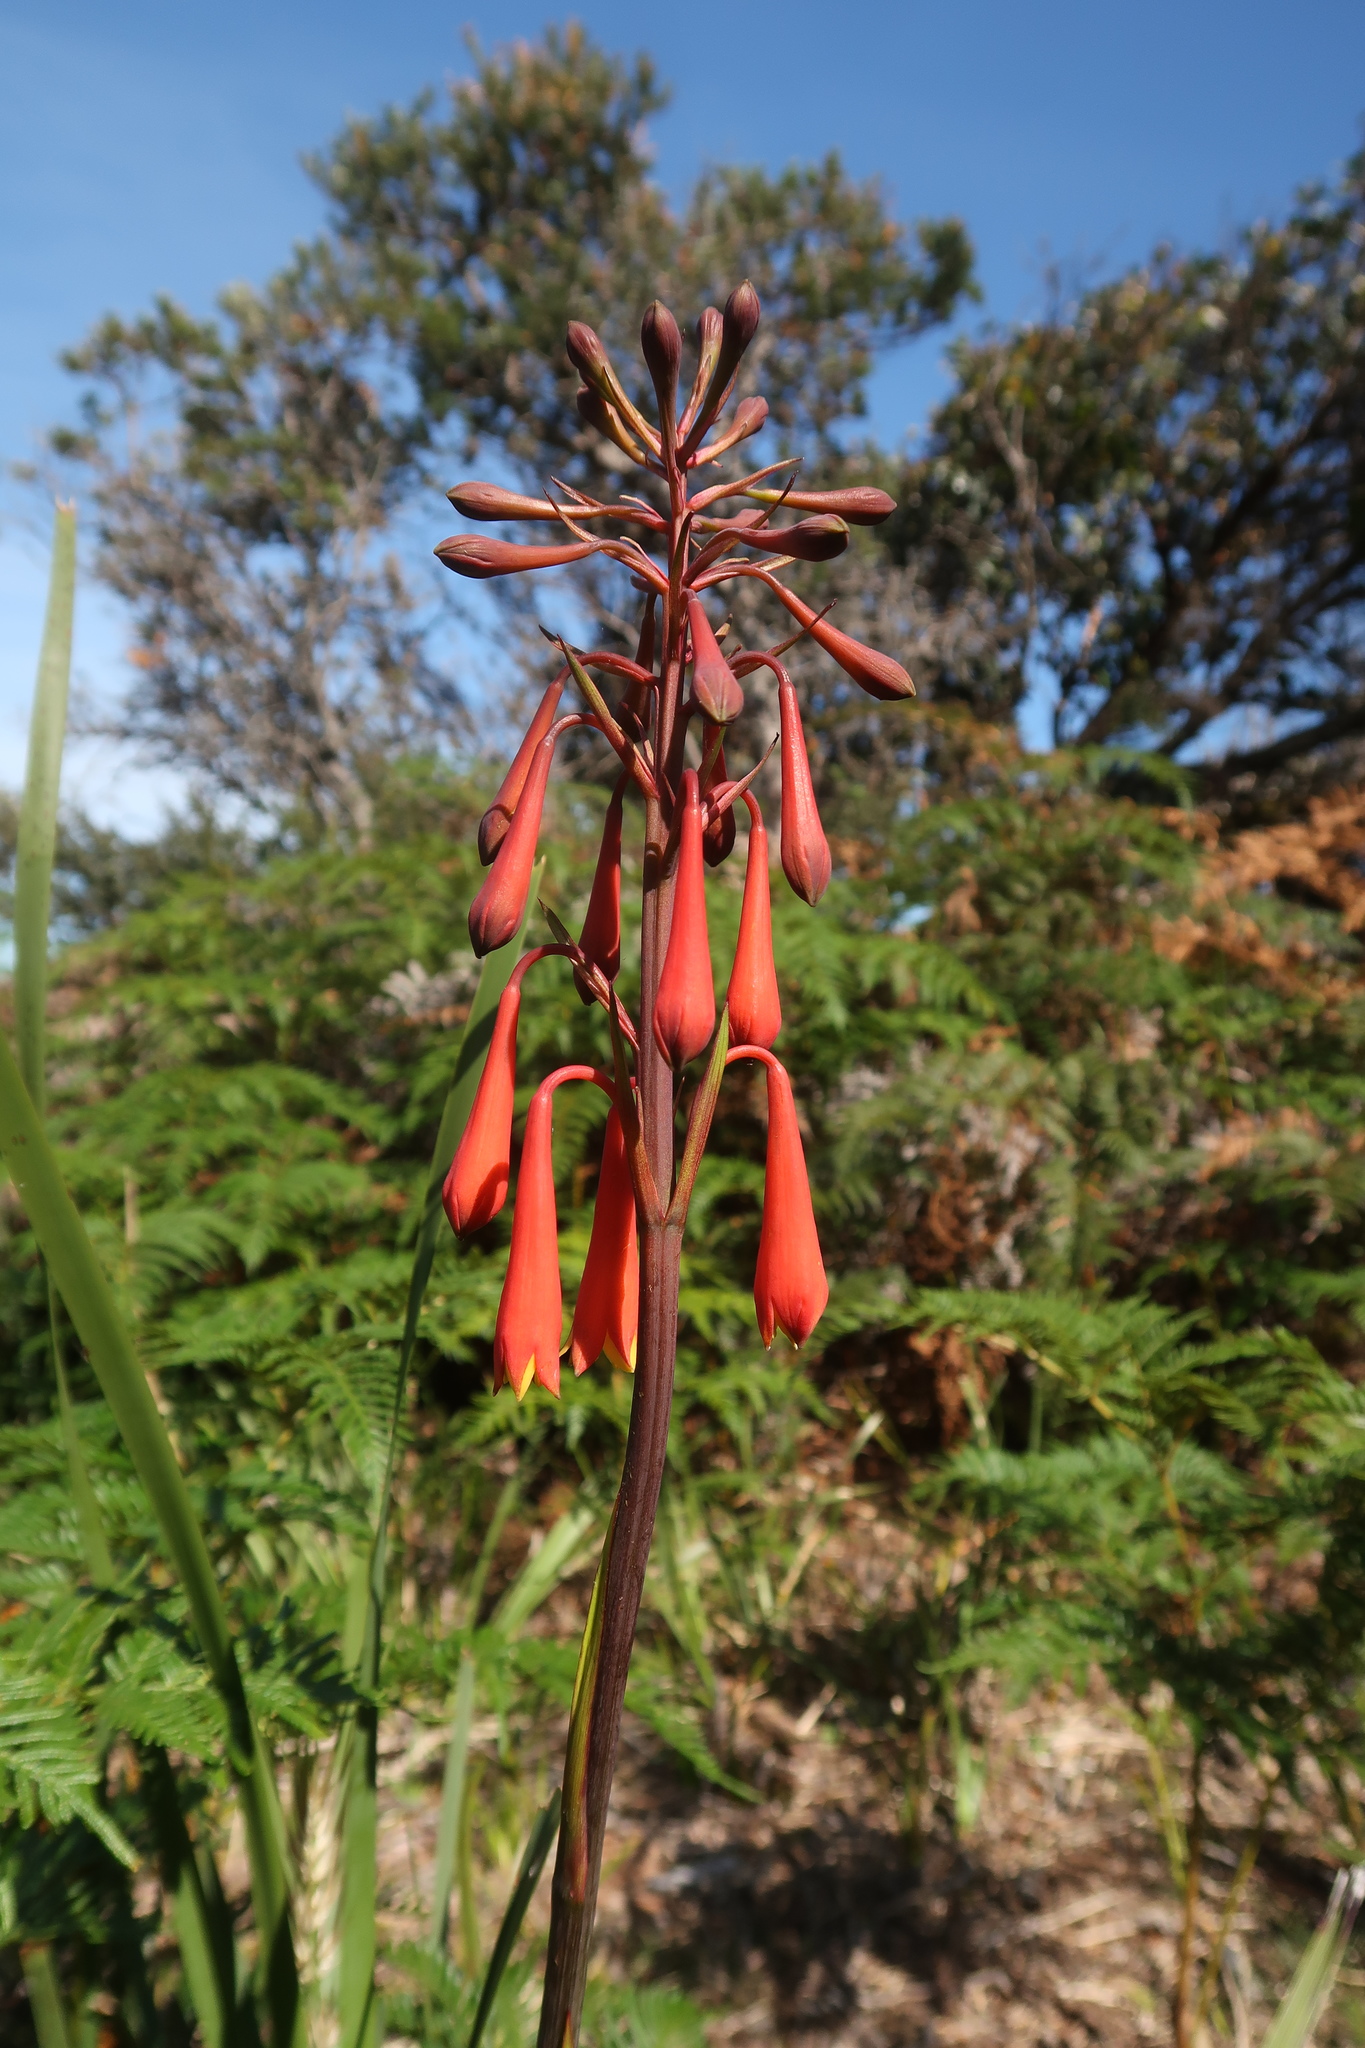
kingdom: Plantae
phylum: Tracheophyta
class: Liliopsida
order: Asparagales
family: Blandfordiaceae
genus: Blandfordia
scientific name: Blandfordia punicea
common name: Tasmanian christmas-bell
